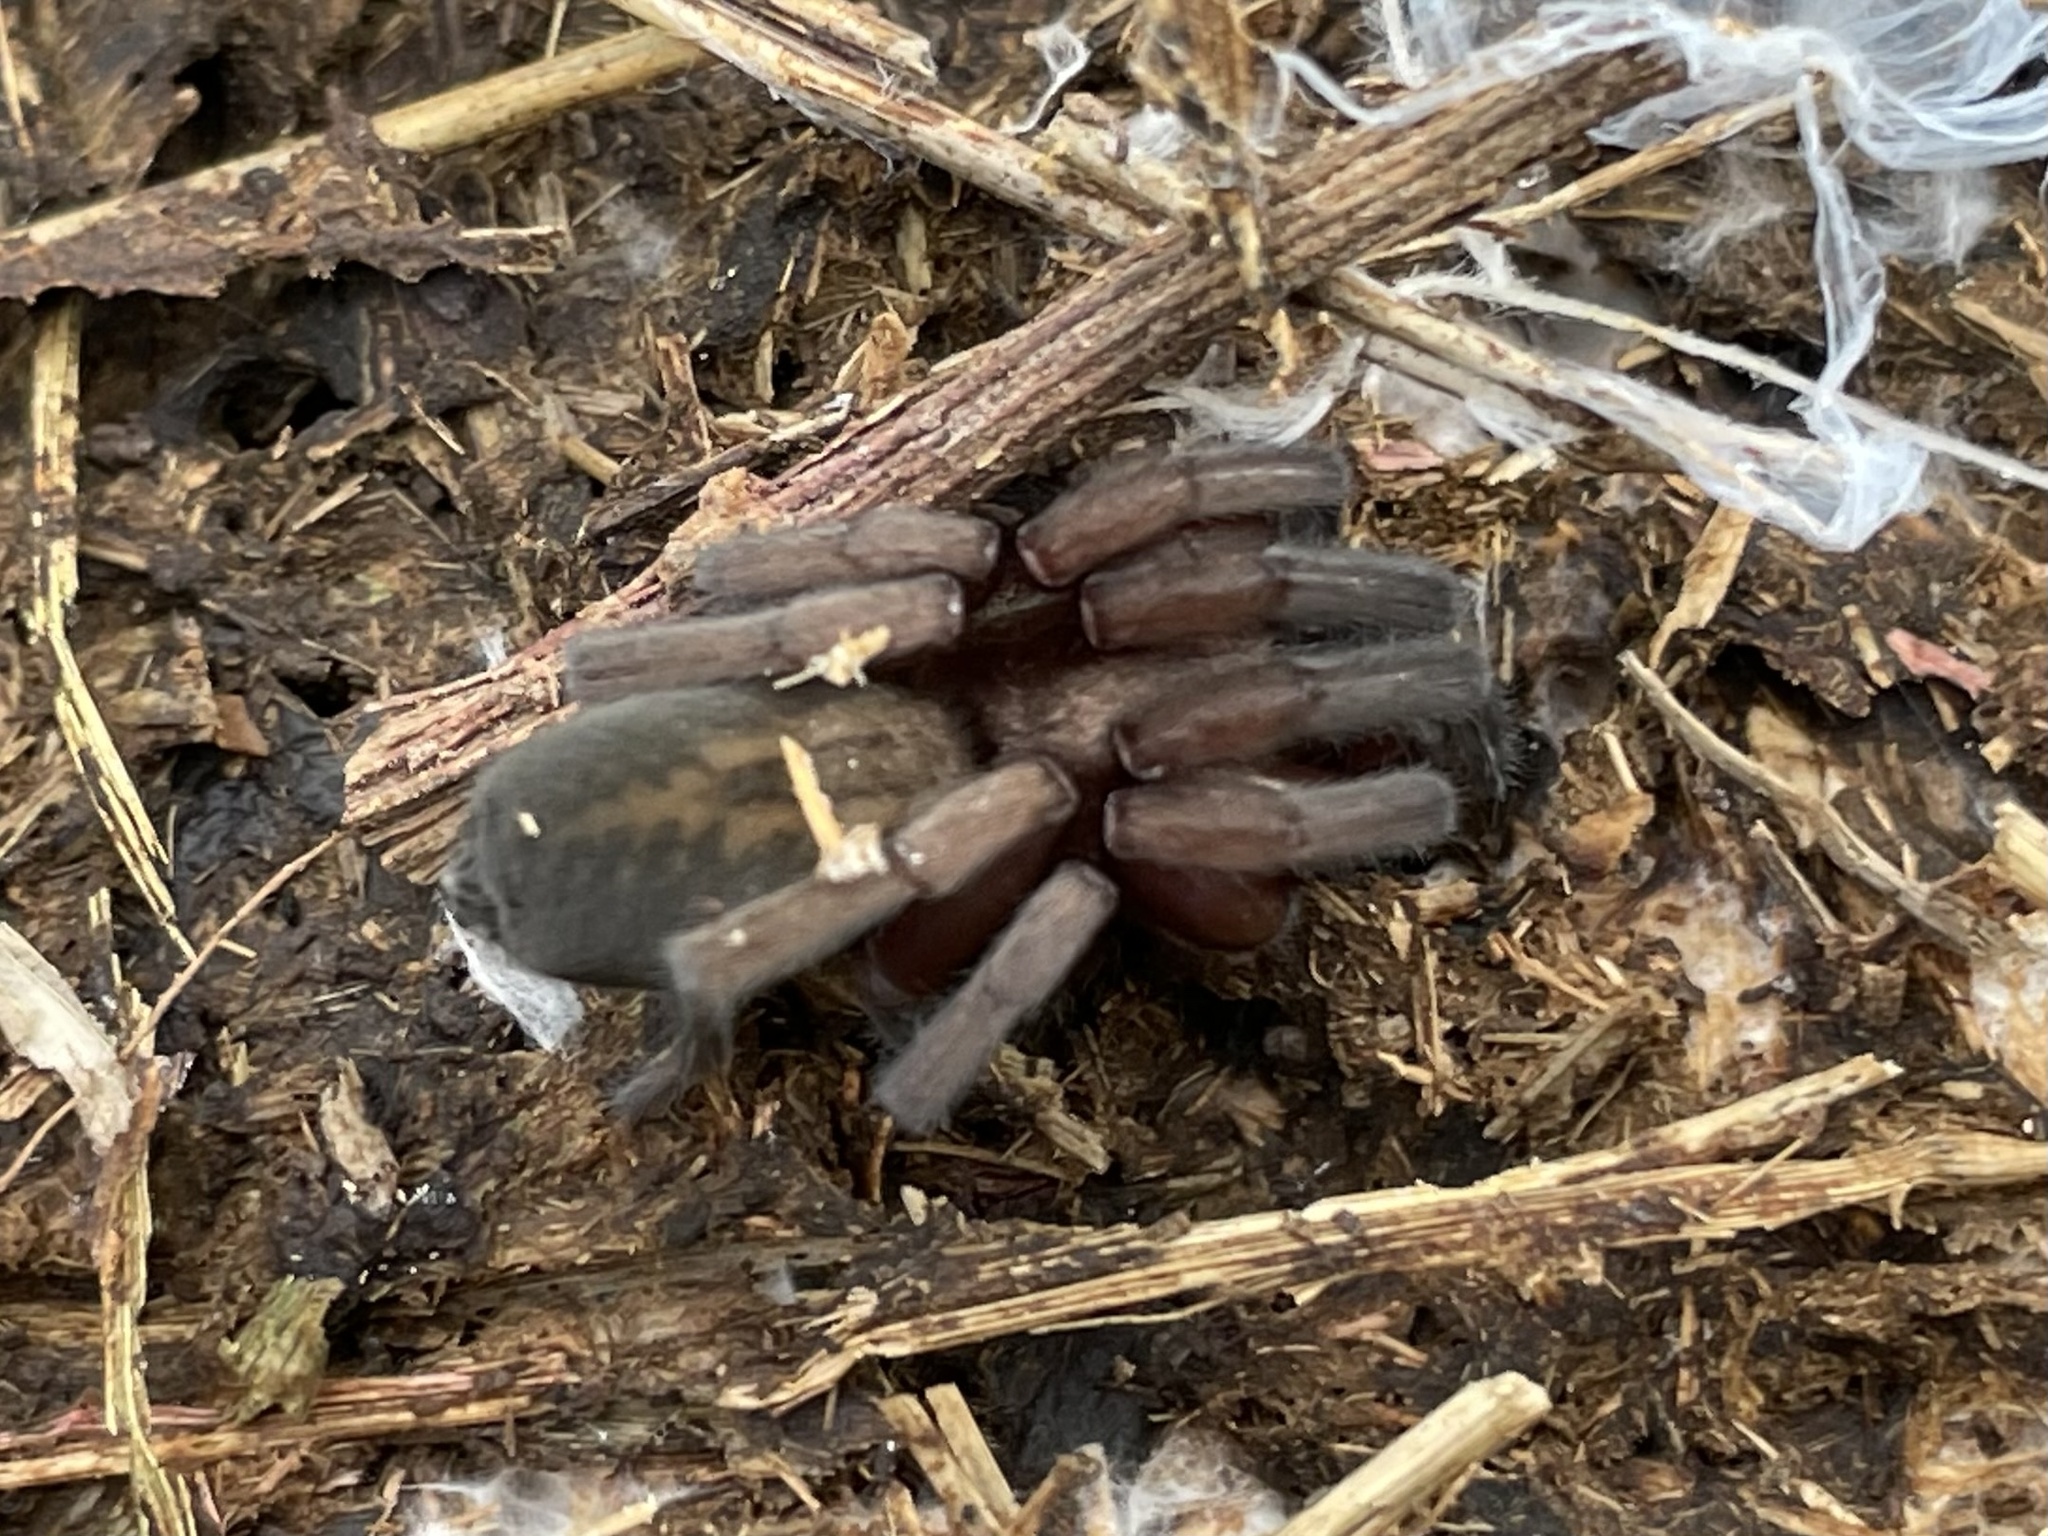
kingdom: Animalia
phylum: Arthropoda
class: Arachnida
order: Araneae
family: Miturgidae
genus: Teminius
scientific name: Teminius affinis
